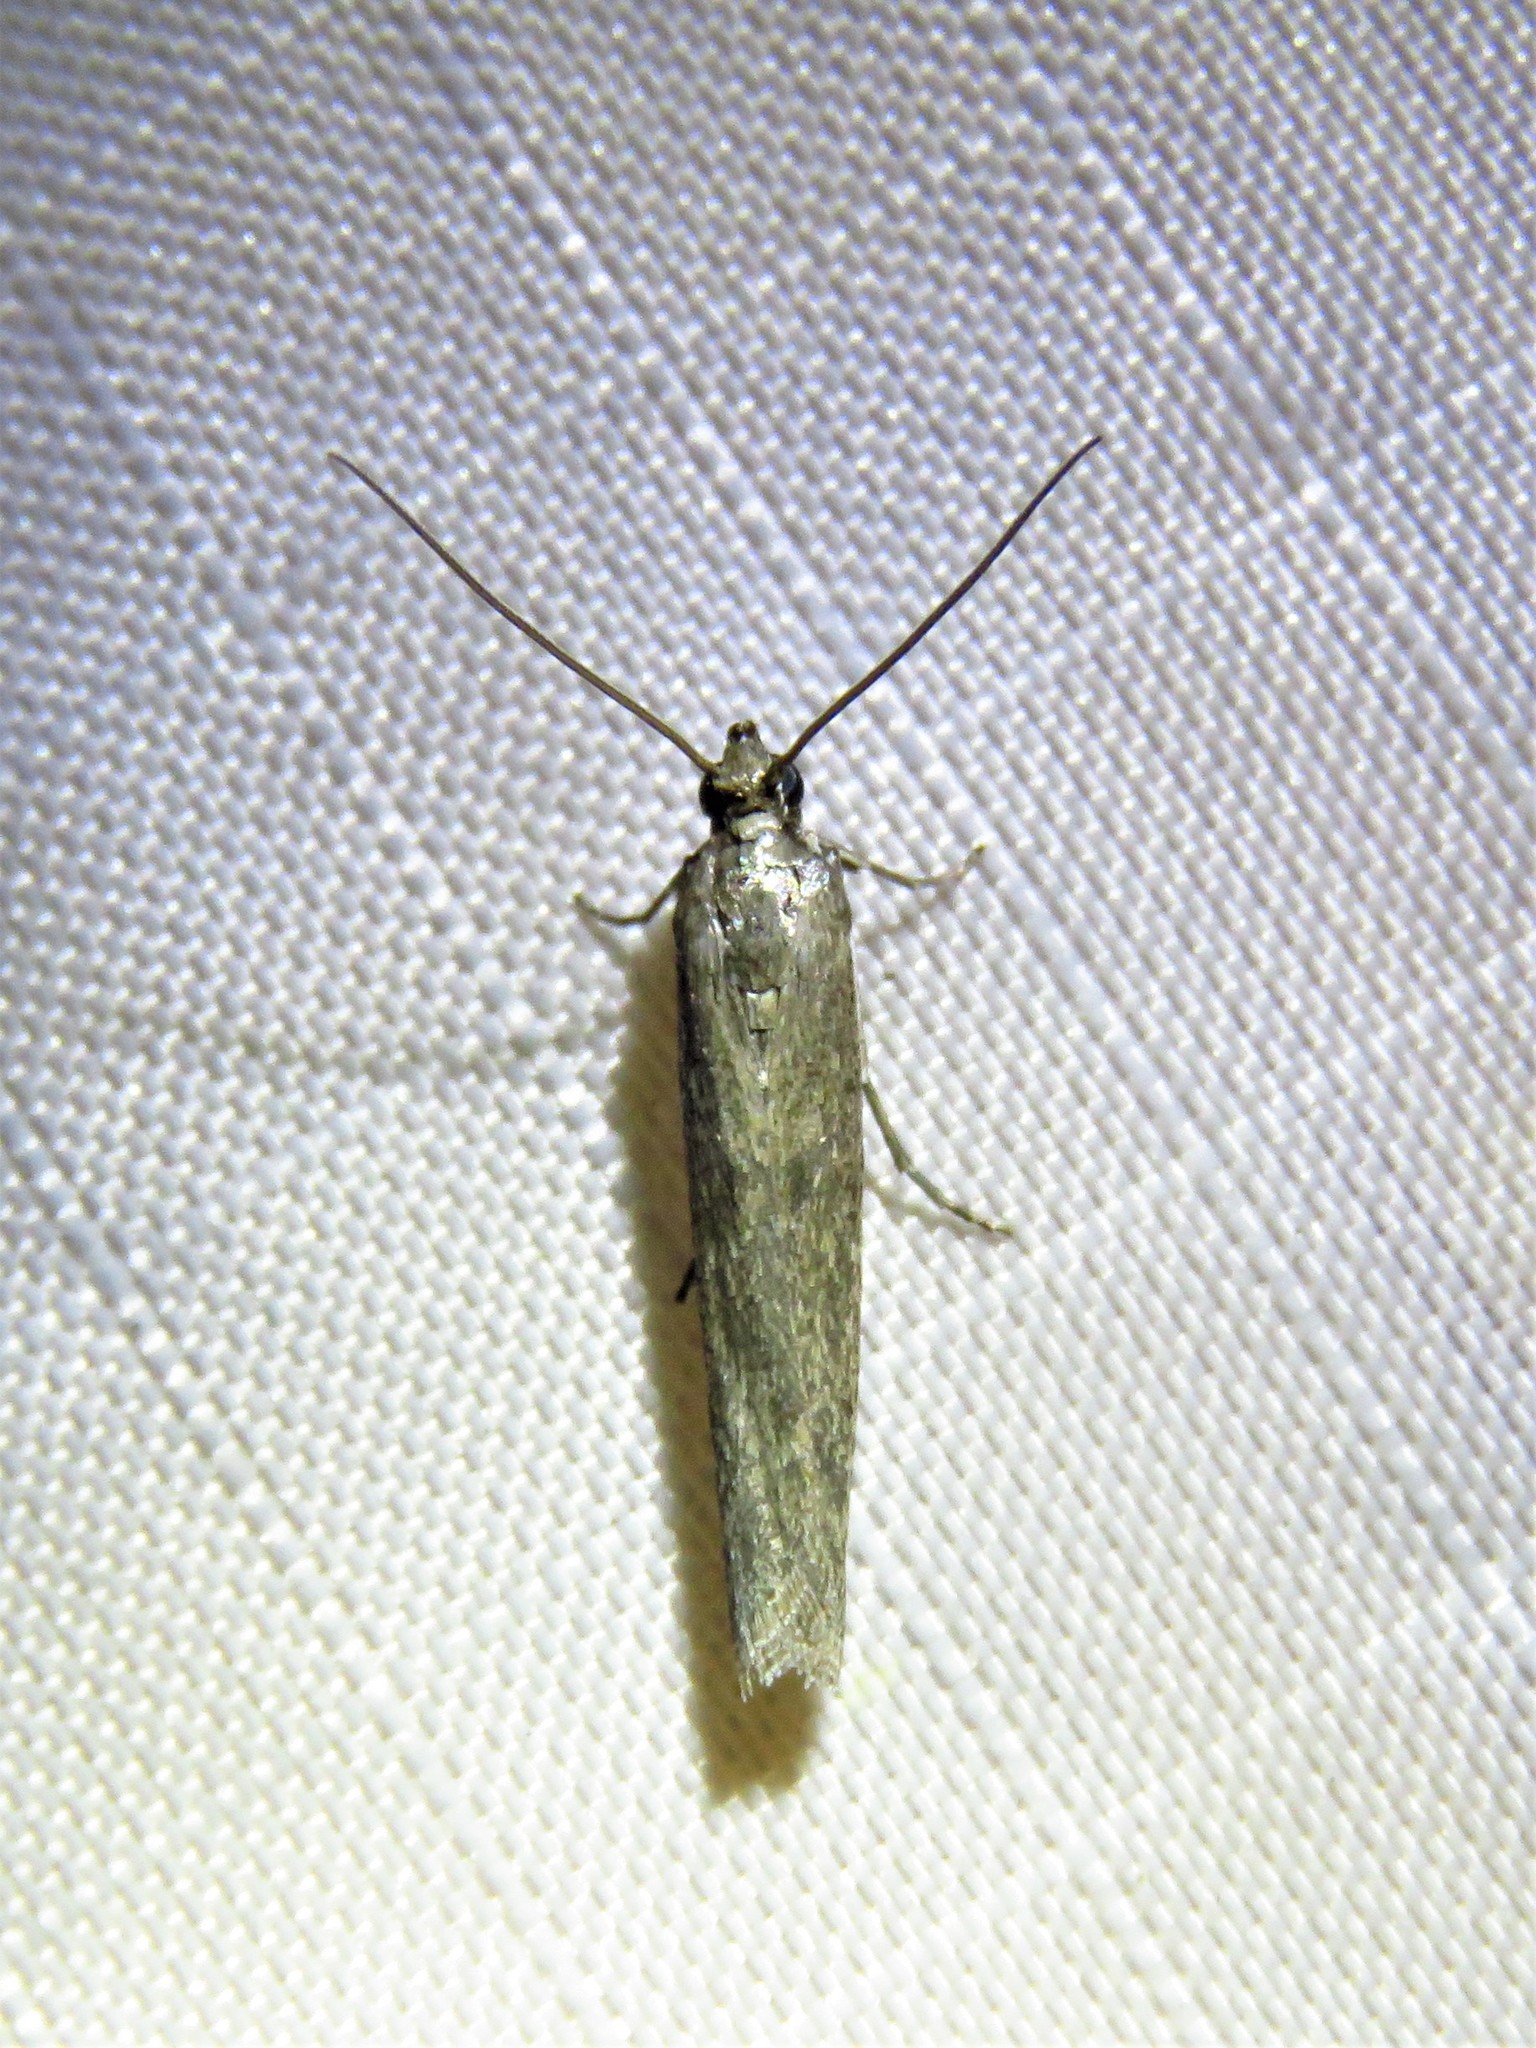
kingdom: Animalia
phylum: Arthropoda
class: Insecta
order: Lepidoptera
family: Pyralidae
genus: Homoeosoma
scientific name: Homoeosoma electella
